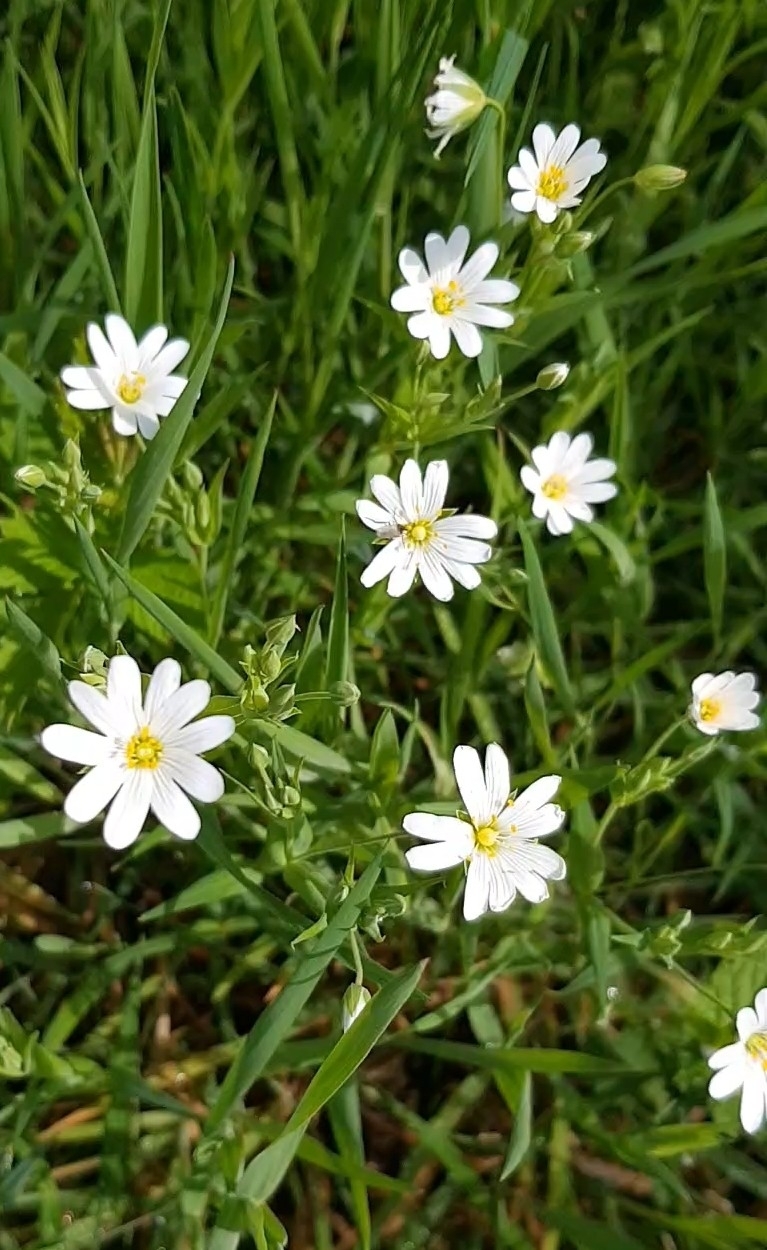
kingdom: Plantae
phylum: Tracheophyta
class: Magnoliopsida
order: Caryophyllales
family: Caryophyllaceae
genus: Rabelera
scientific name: Rabelera holostea
